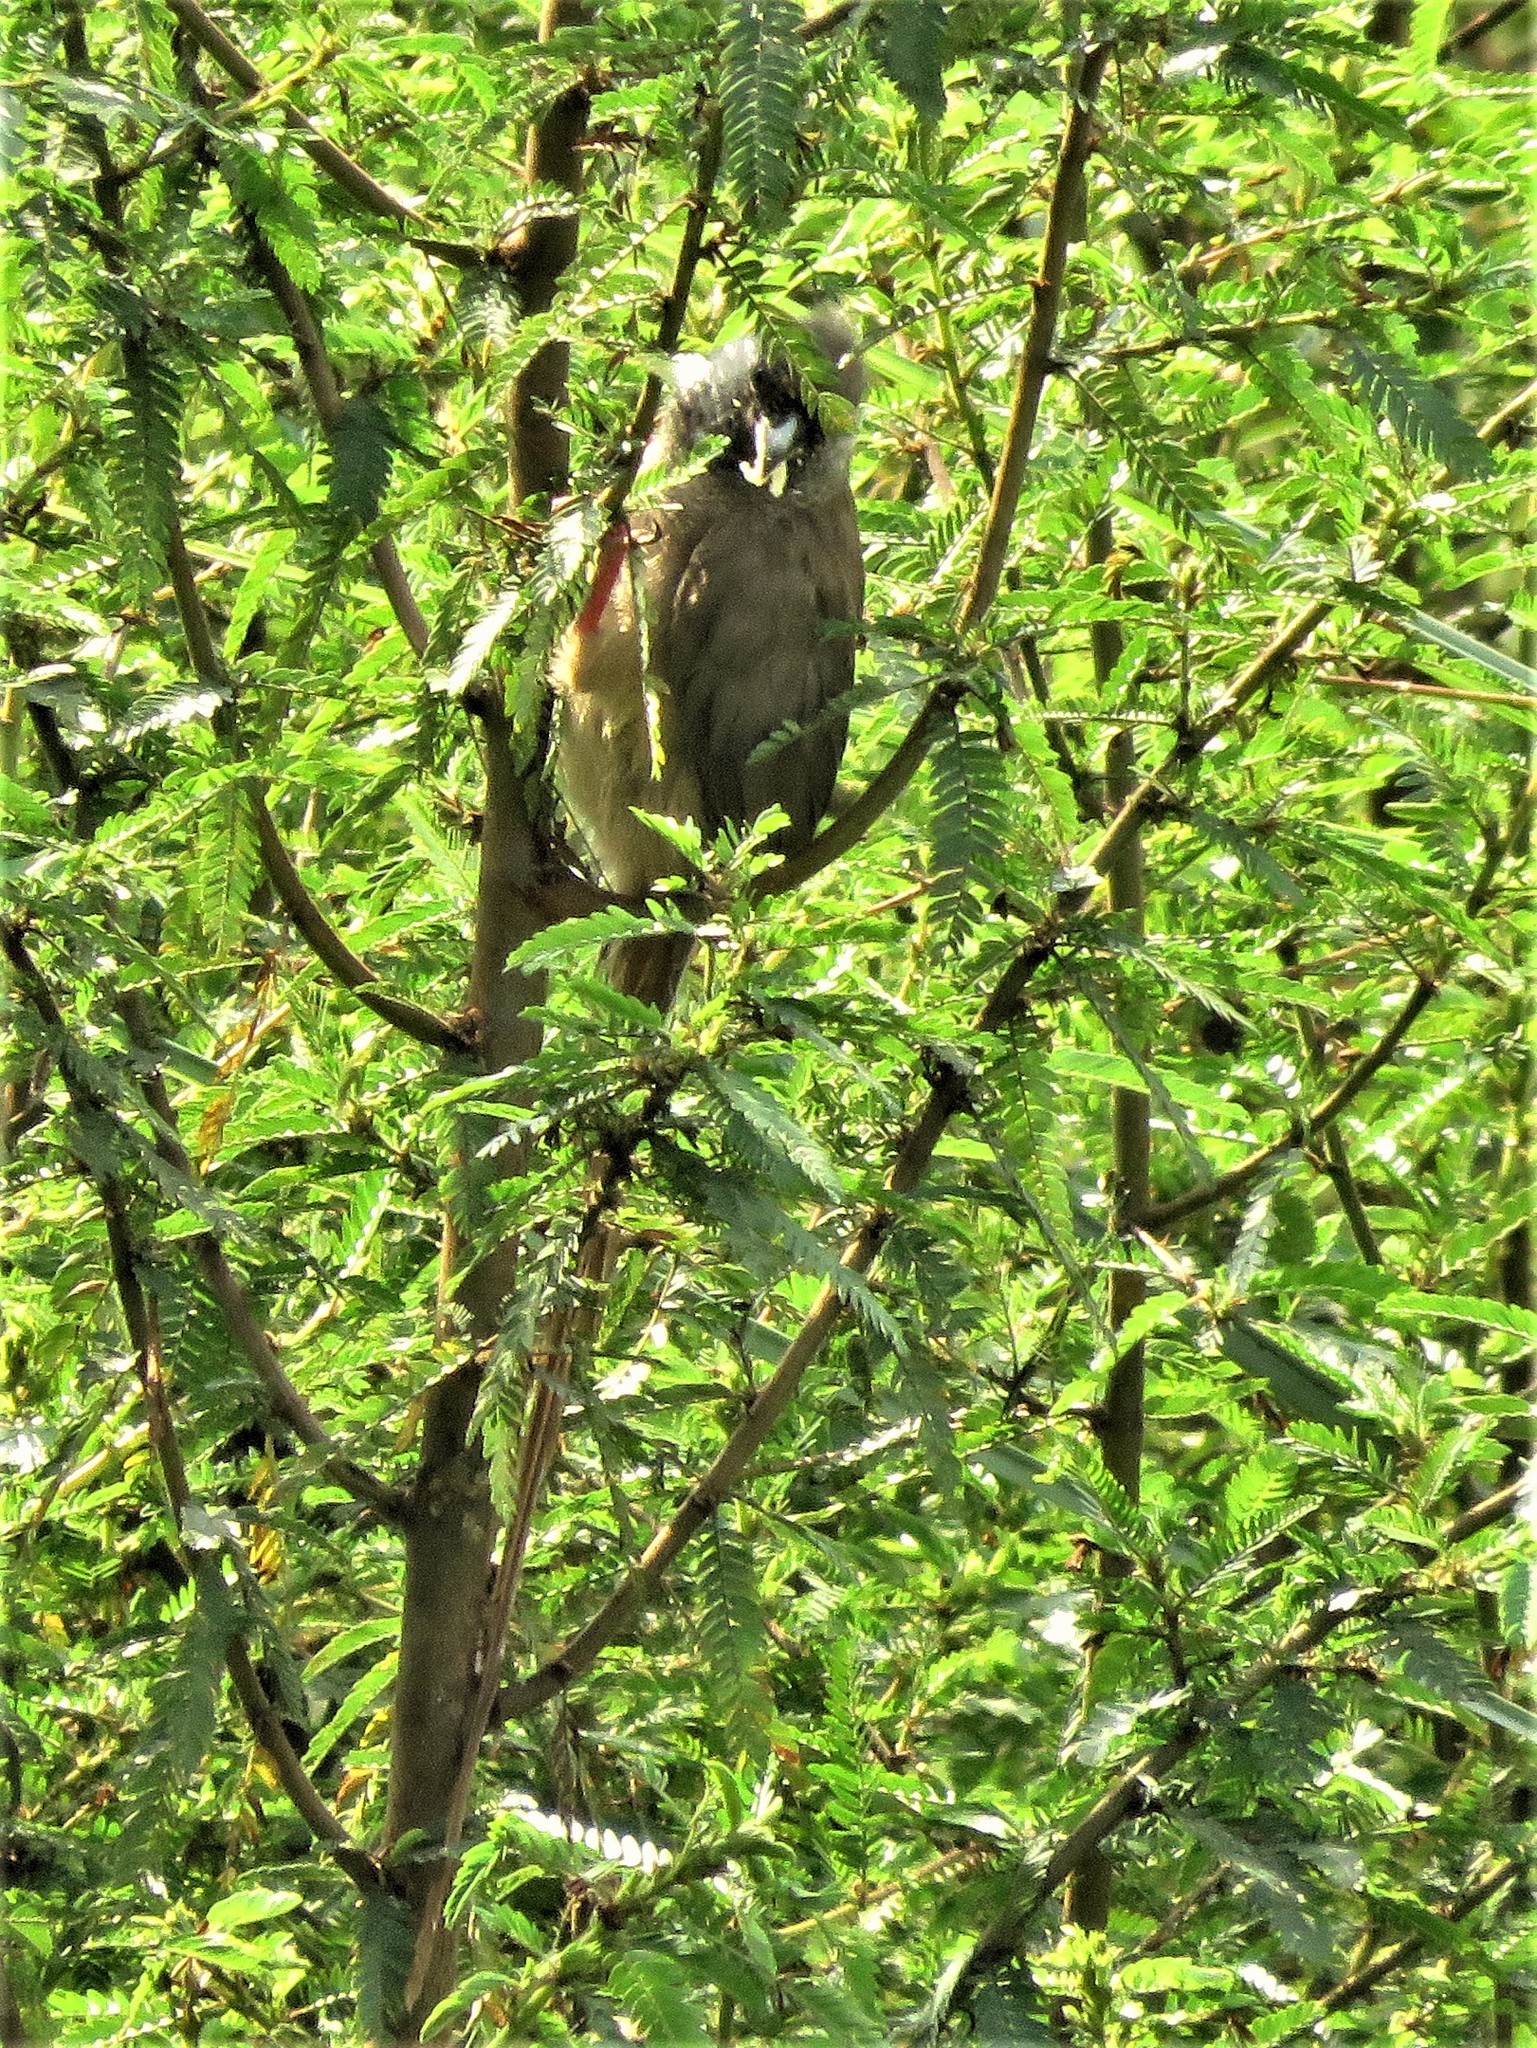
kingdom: Animalia
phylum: Chordata
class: Aves
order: Coliiformes
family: Coliidae
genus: Colius
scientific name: Colius striatus
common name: Speckled mousebird
